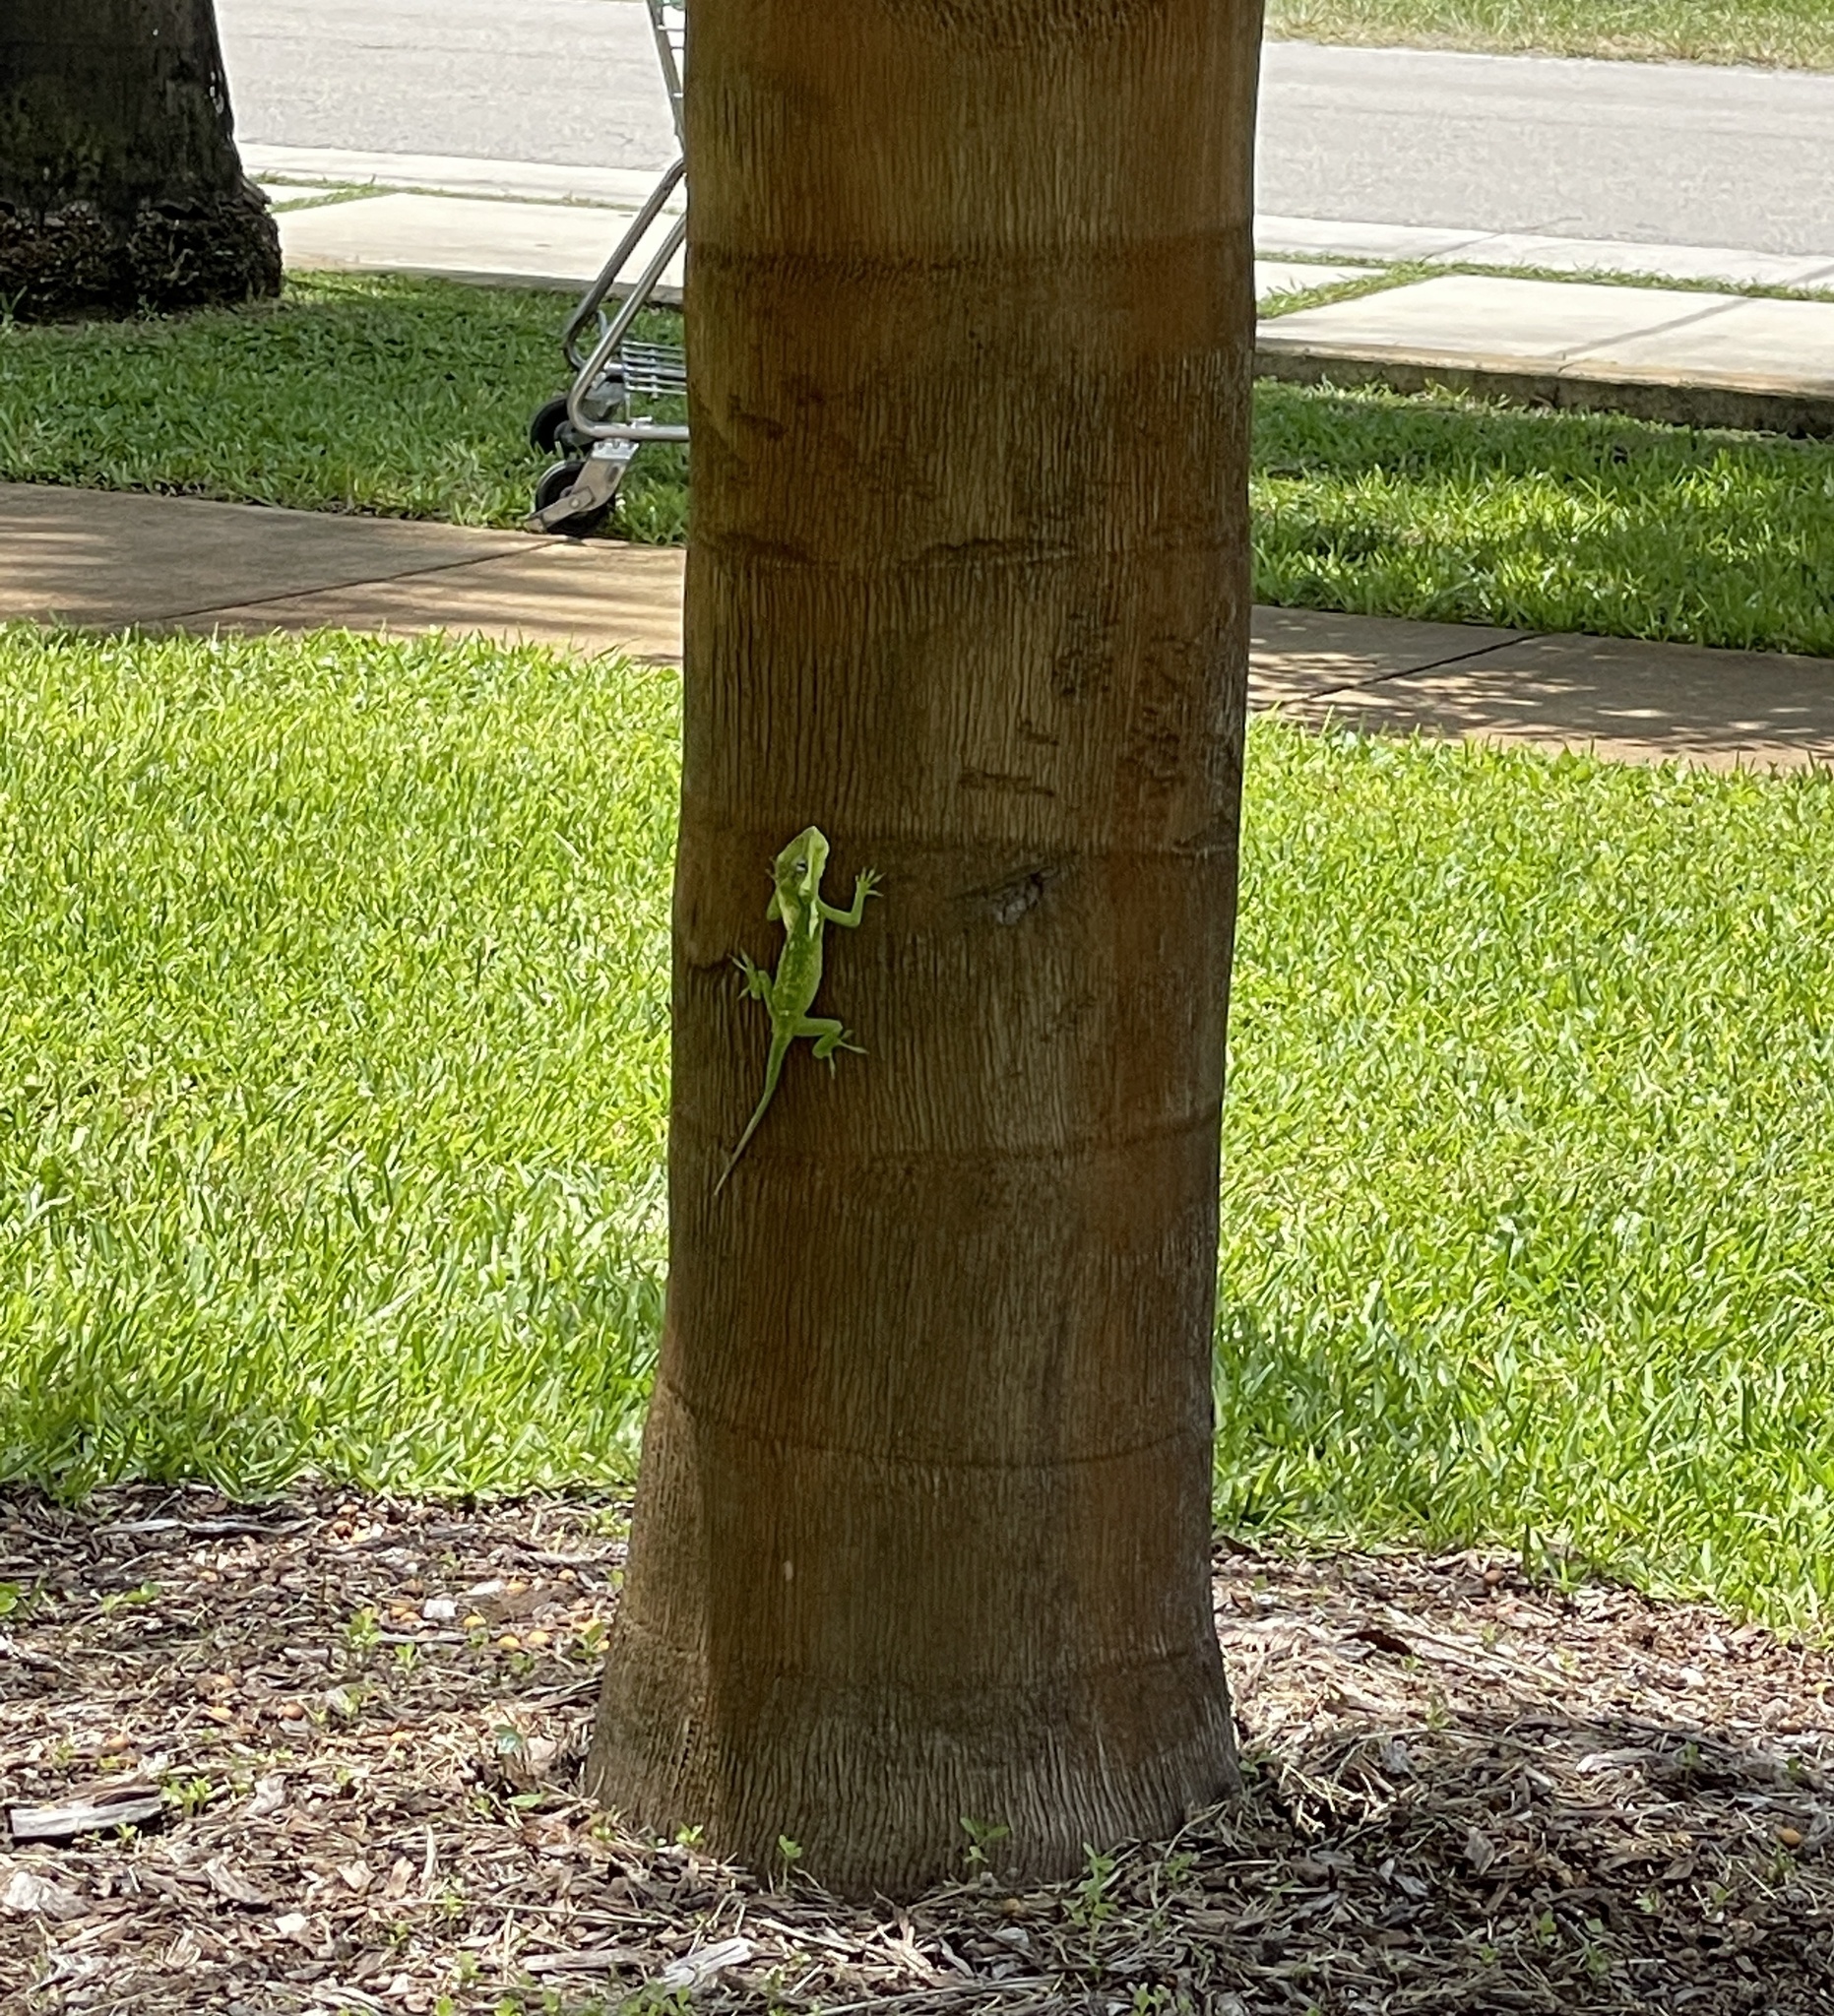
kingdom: Animalia
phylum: Chordata
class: Squamata
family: Dactyloidae
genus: Anolis
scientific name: Anolis equestris
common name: Knight anole
